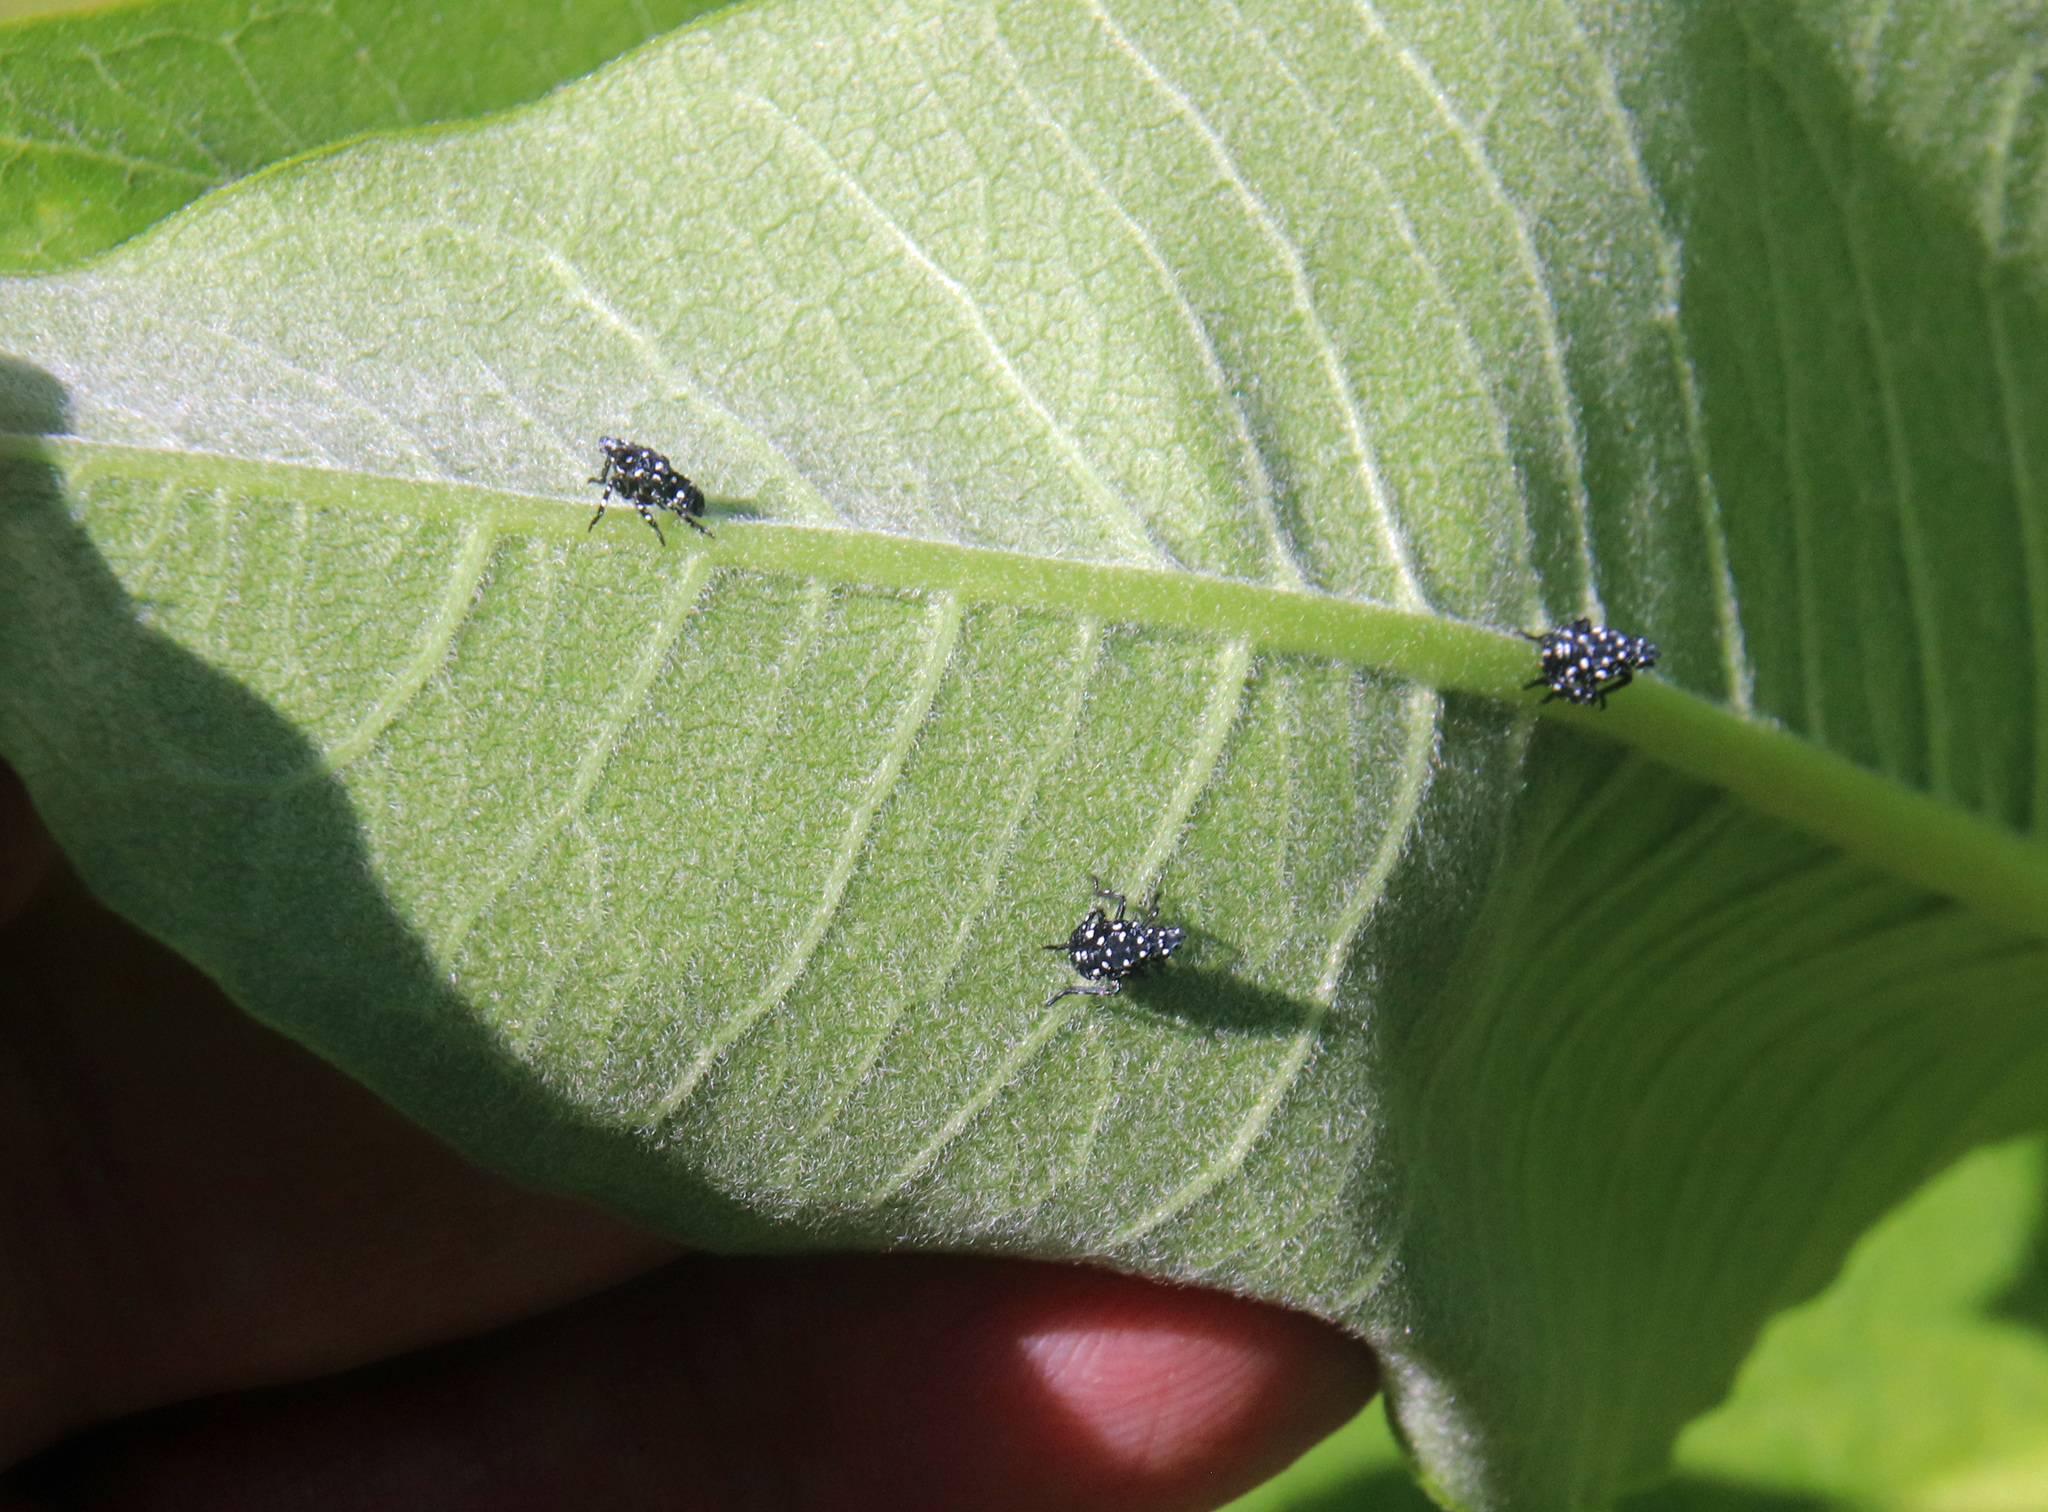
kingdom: Animalia
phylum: Arthropoda
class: Insecta
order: Hemiptera
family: Fulgoridae
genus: Lycorma
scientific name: Lycorma delicatula
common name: Spotted lanternfly
